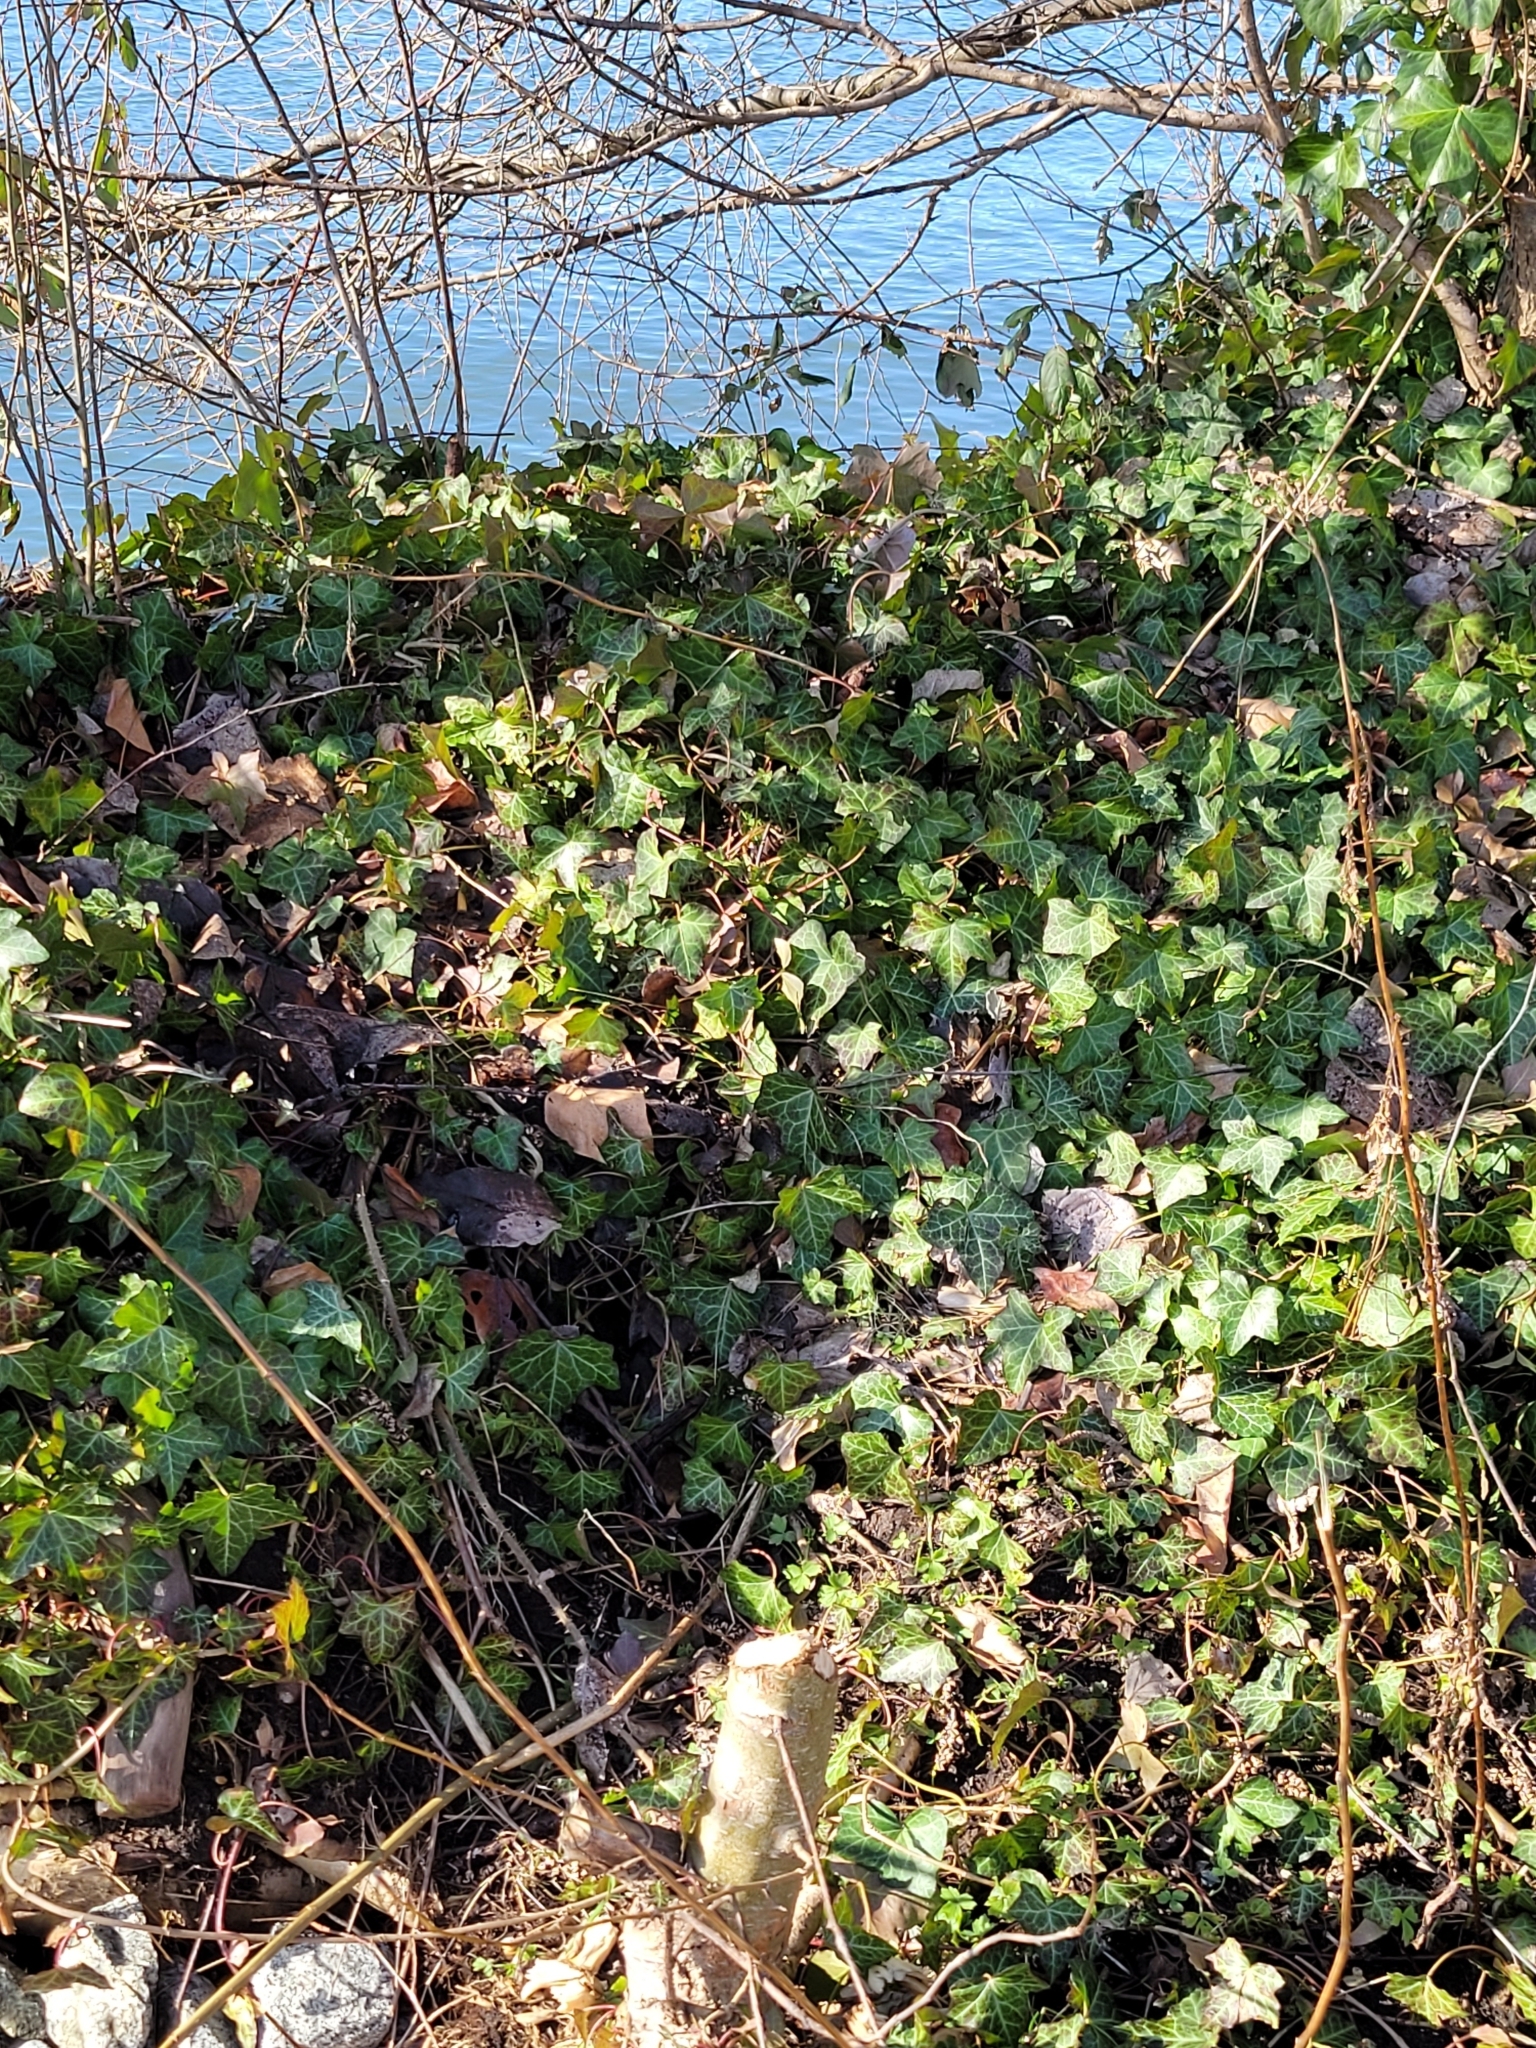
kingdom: Plantae
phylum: Tracheophyta
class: Magnoliopsida
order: Apiales
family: Araliaceae
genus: Hedera
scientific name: Hedera helix
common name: Ivy
